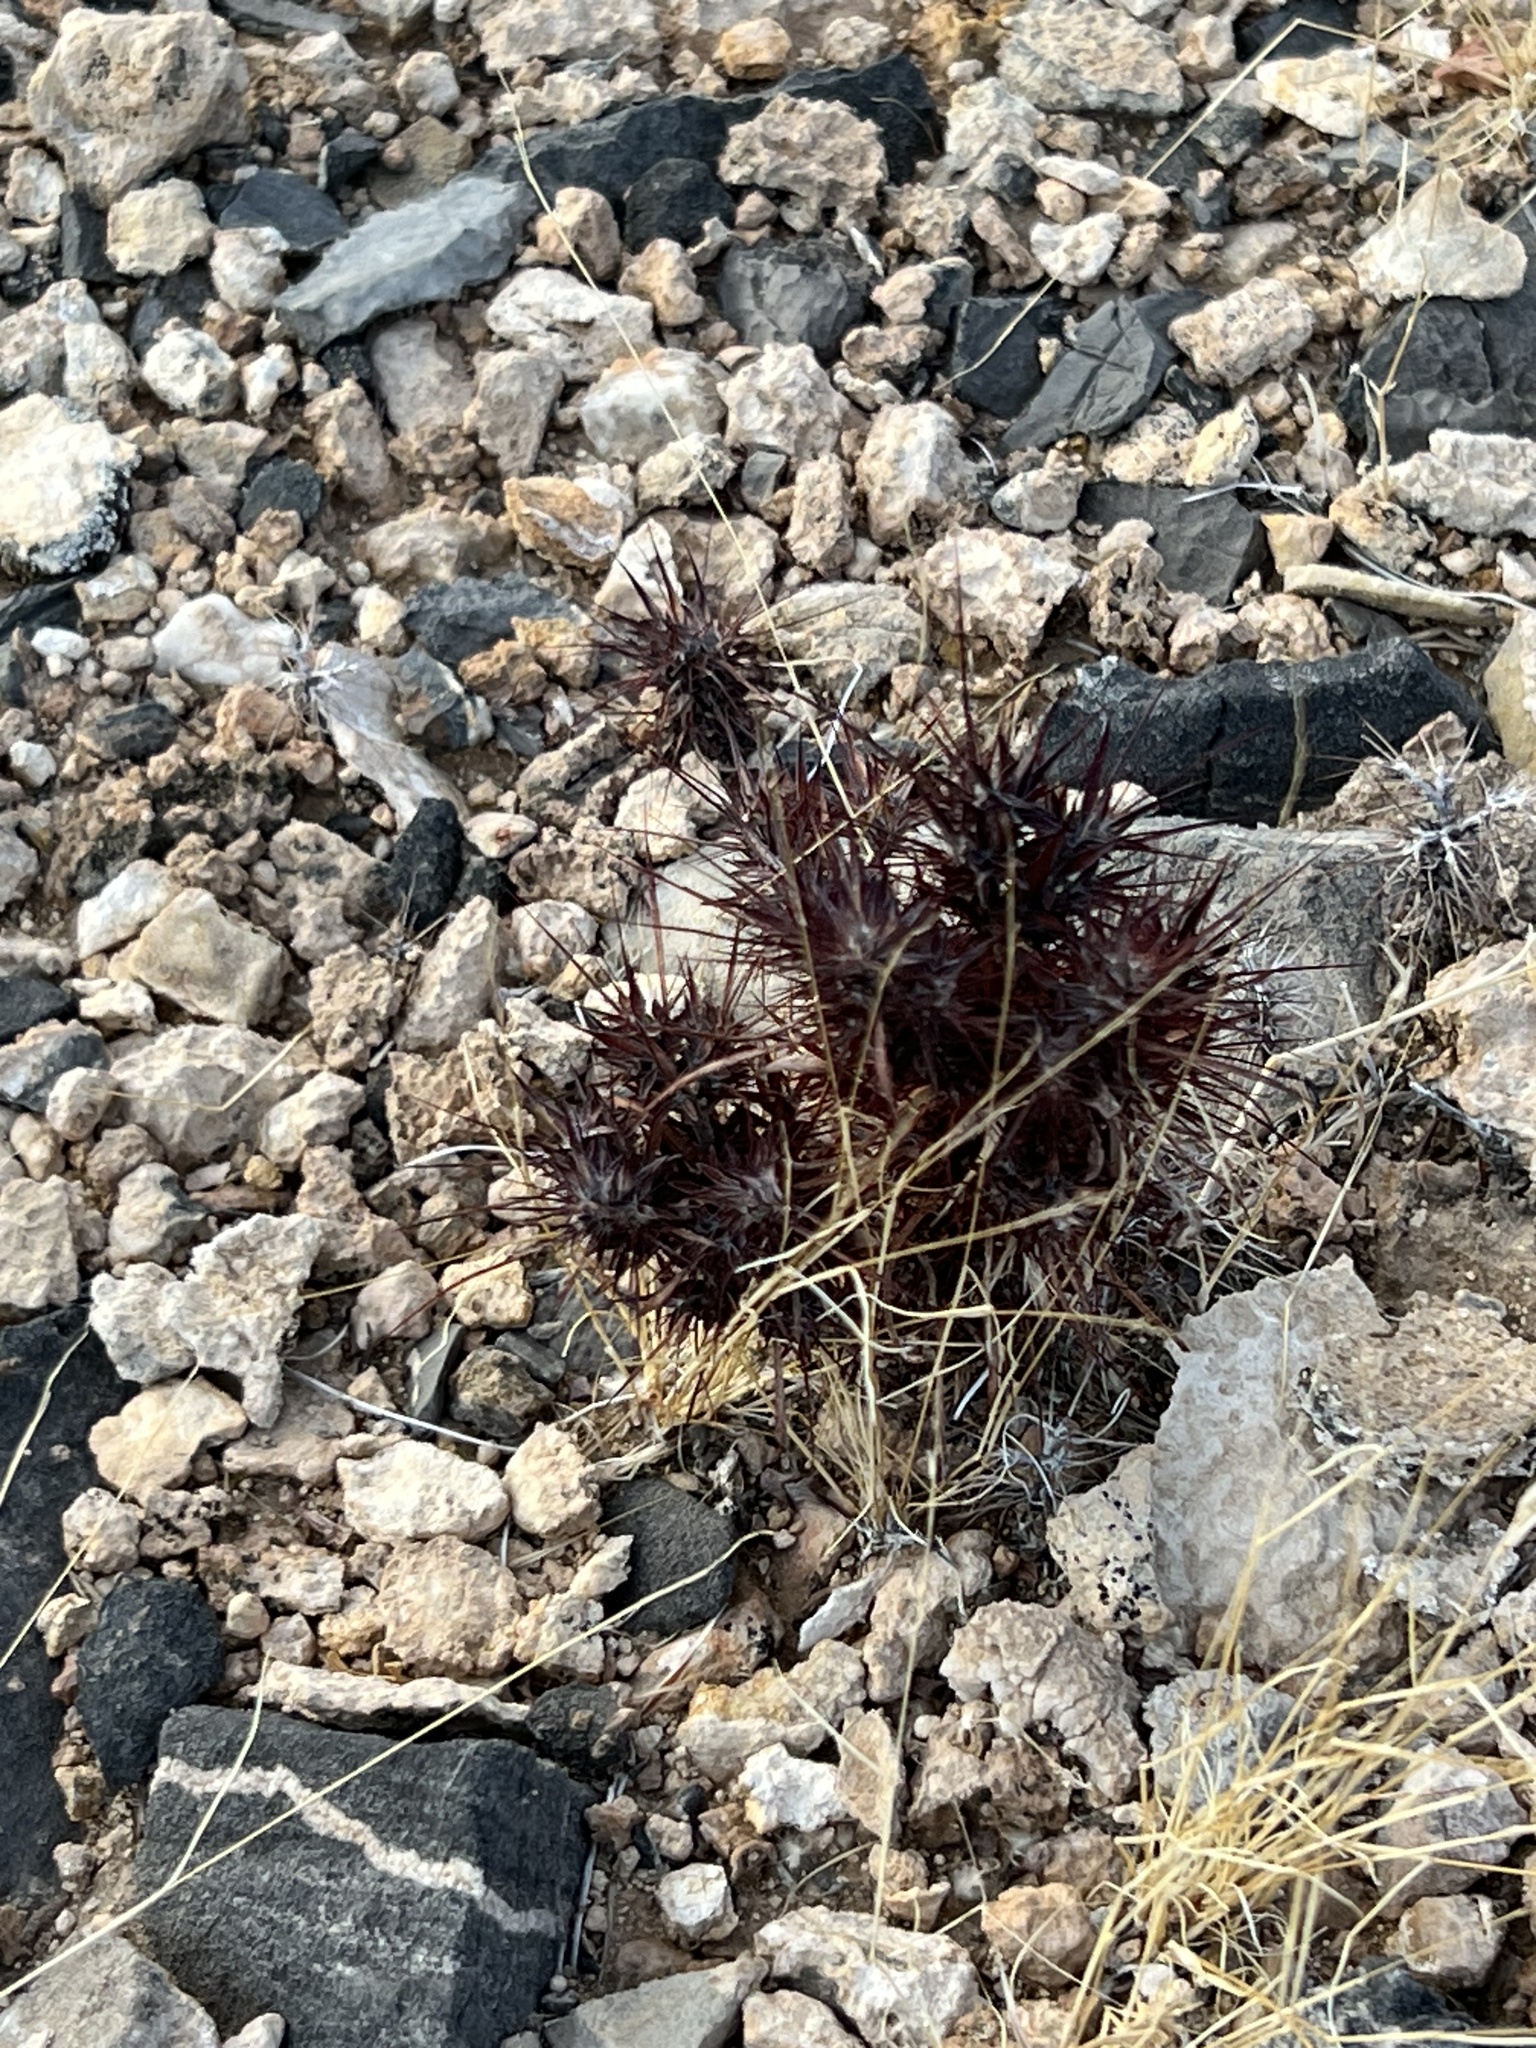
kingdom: Plantae
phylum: Tracheophyta
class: Magnoliopsida
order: Caryophyllales
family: Polygonaceae
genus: Chorizanthe
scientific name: Chorizanthe rigida
